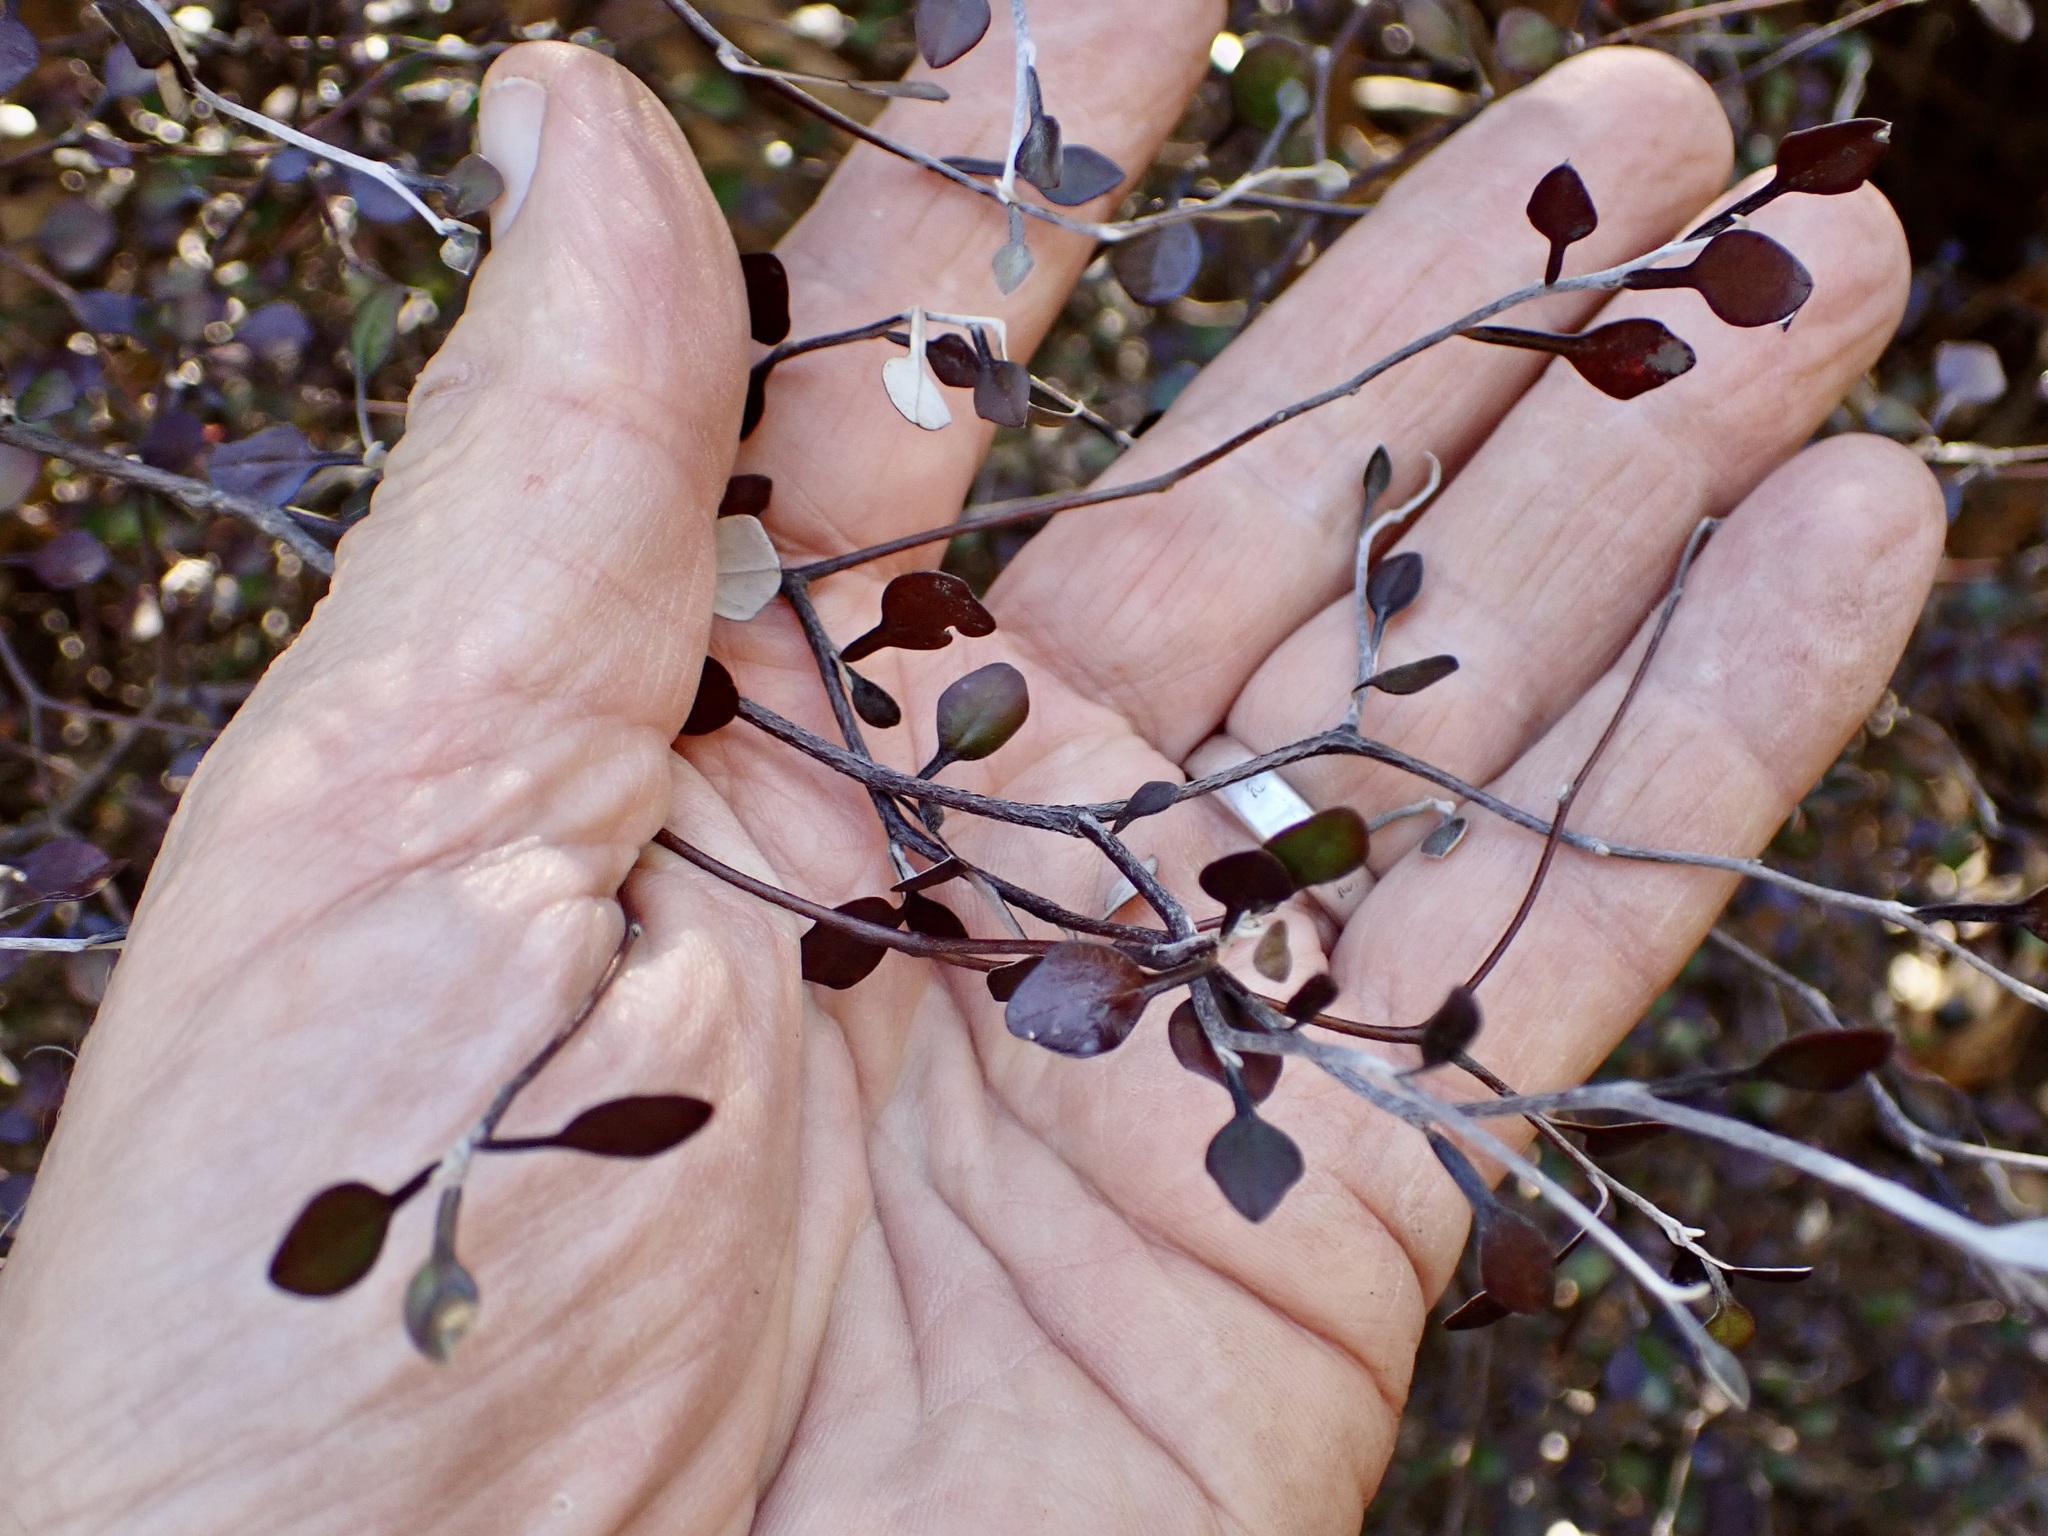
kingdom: Plantae
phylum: Tracheophyta
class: Magnoliopsida
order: Asterales
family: Argophyllaceae
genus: Corokia
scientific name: Corokia cotoneaster
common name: Wire nettingbush
